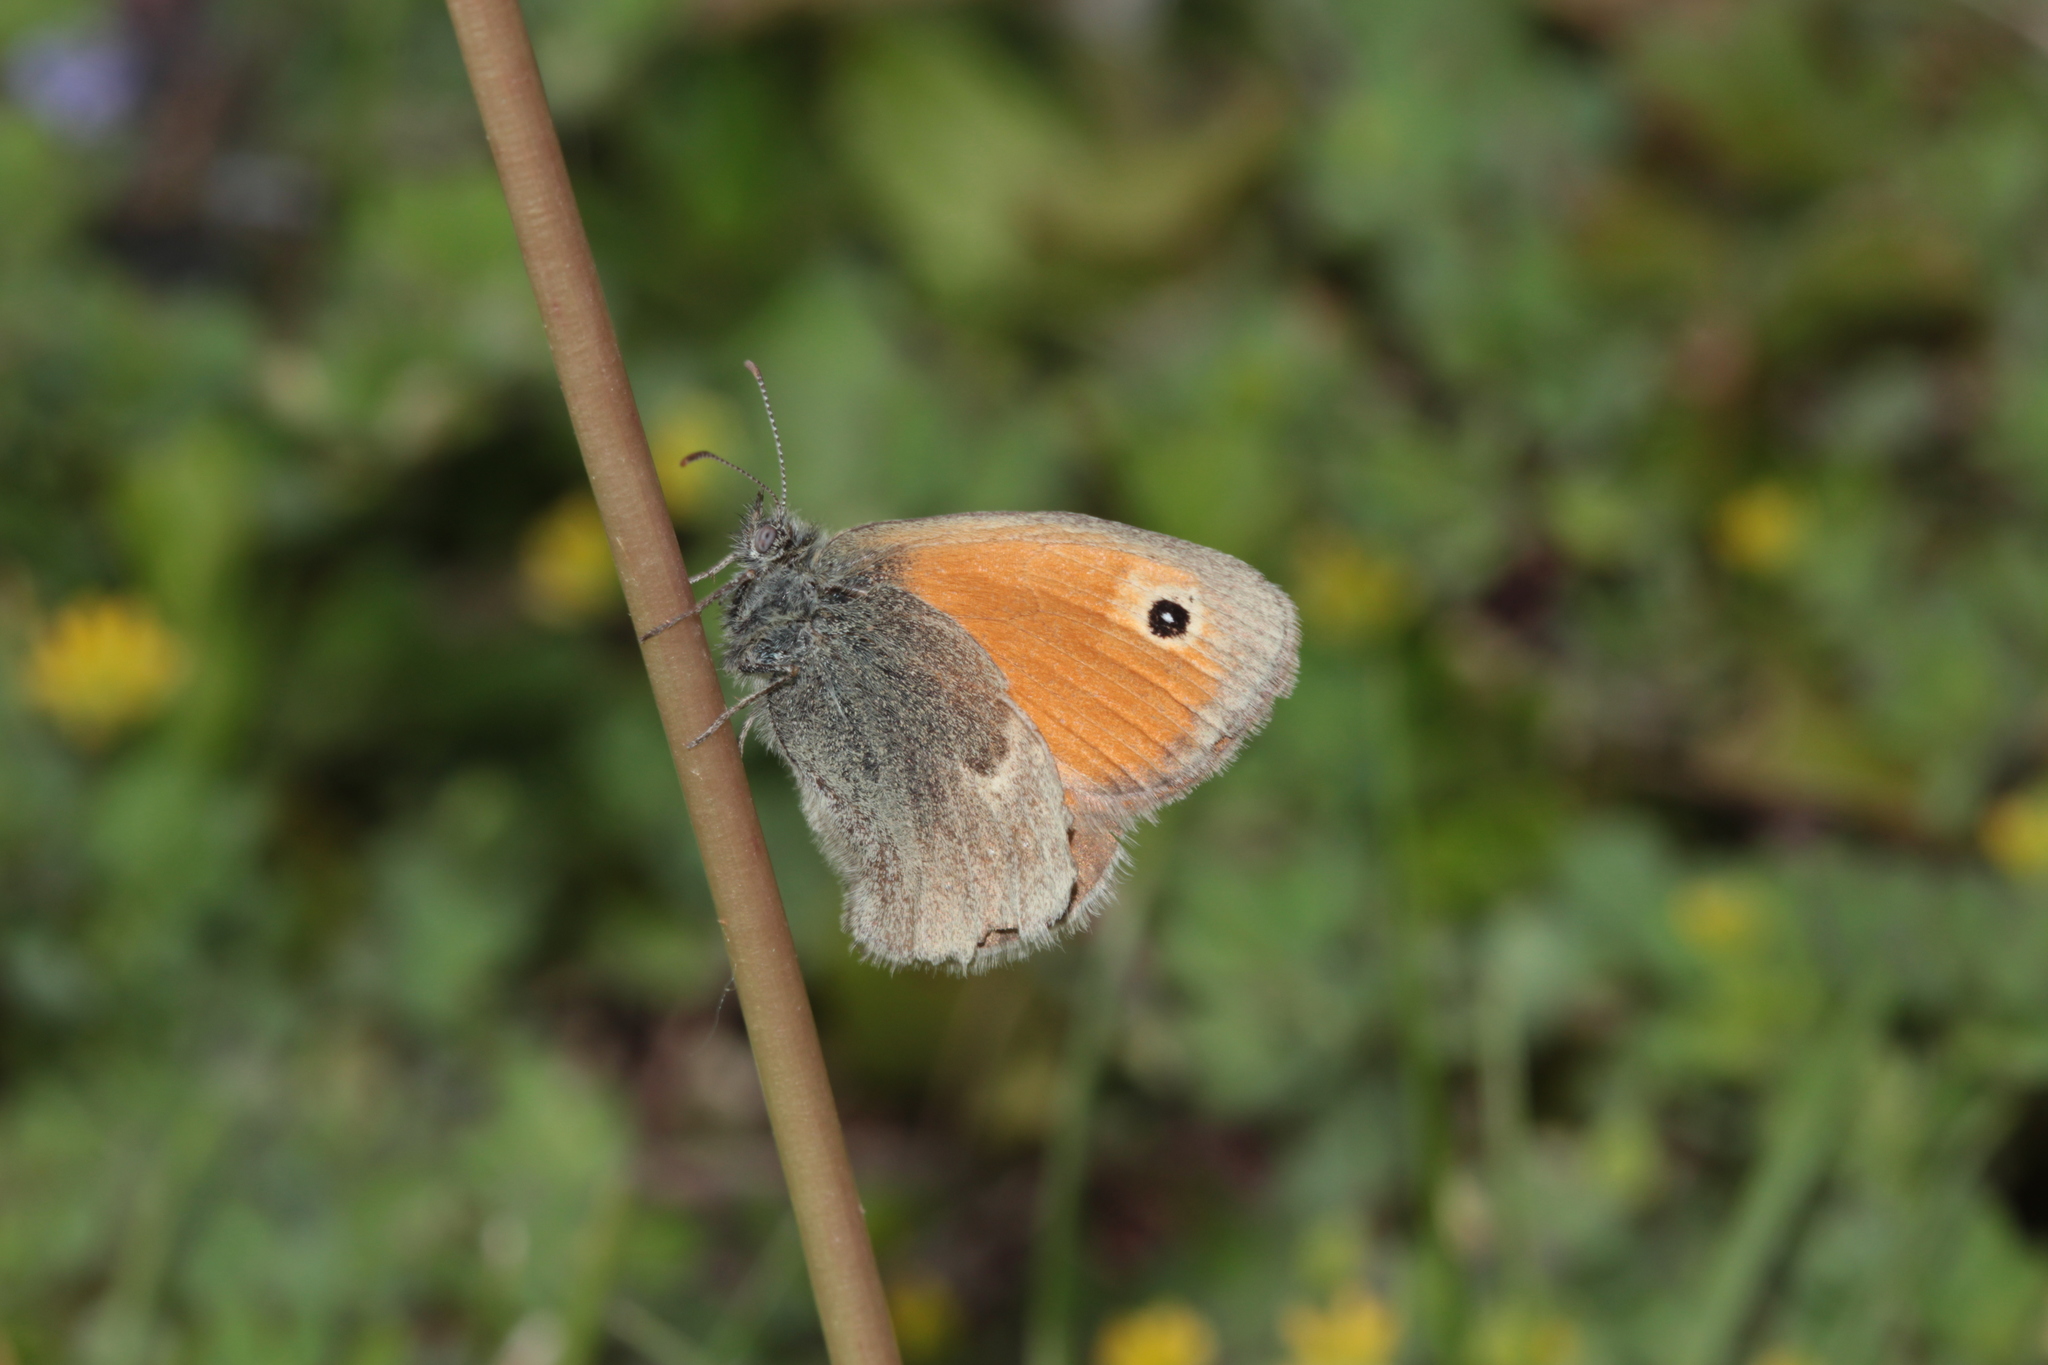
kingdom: Animalia
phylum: Arthropoda
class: Insecta
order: Lepidoptera
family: Nymphalidae
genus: Coenonympha
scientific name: Coenonympha pamphilus
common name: Small heath
